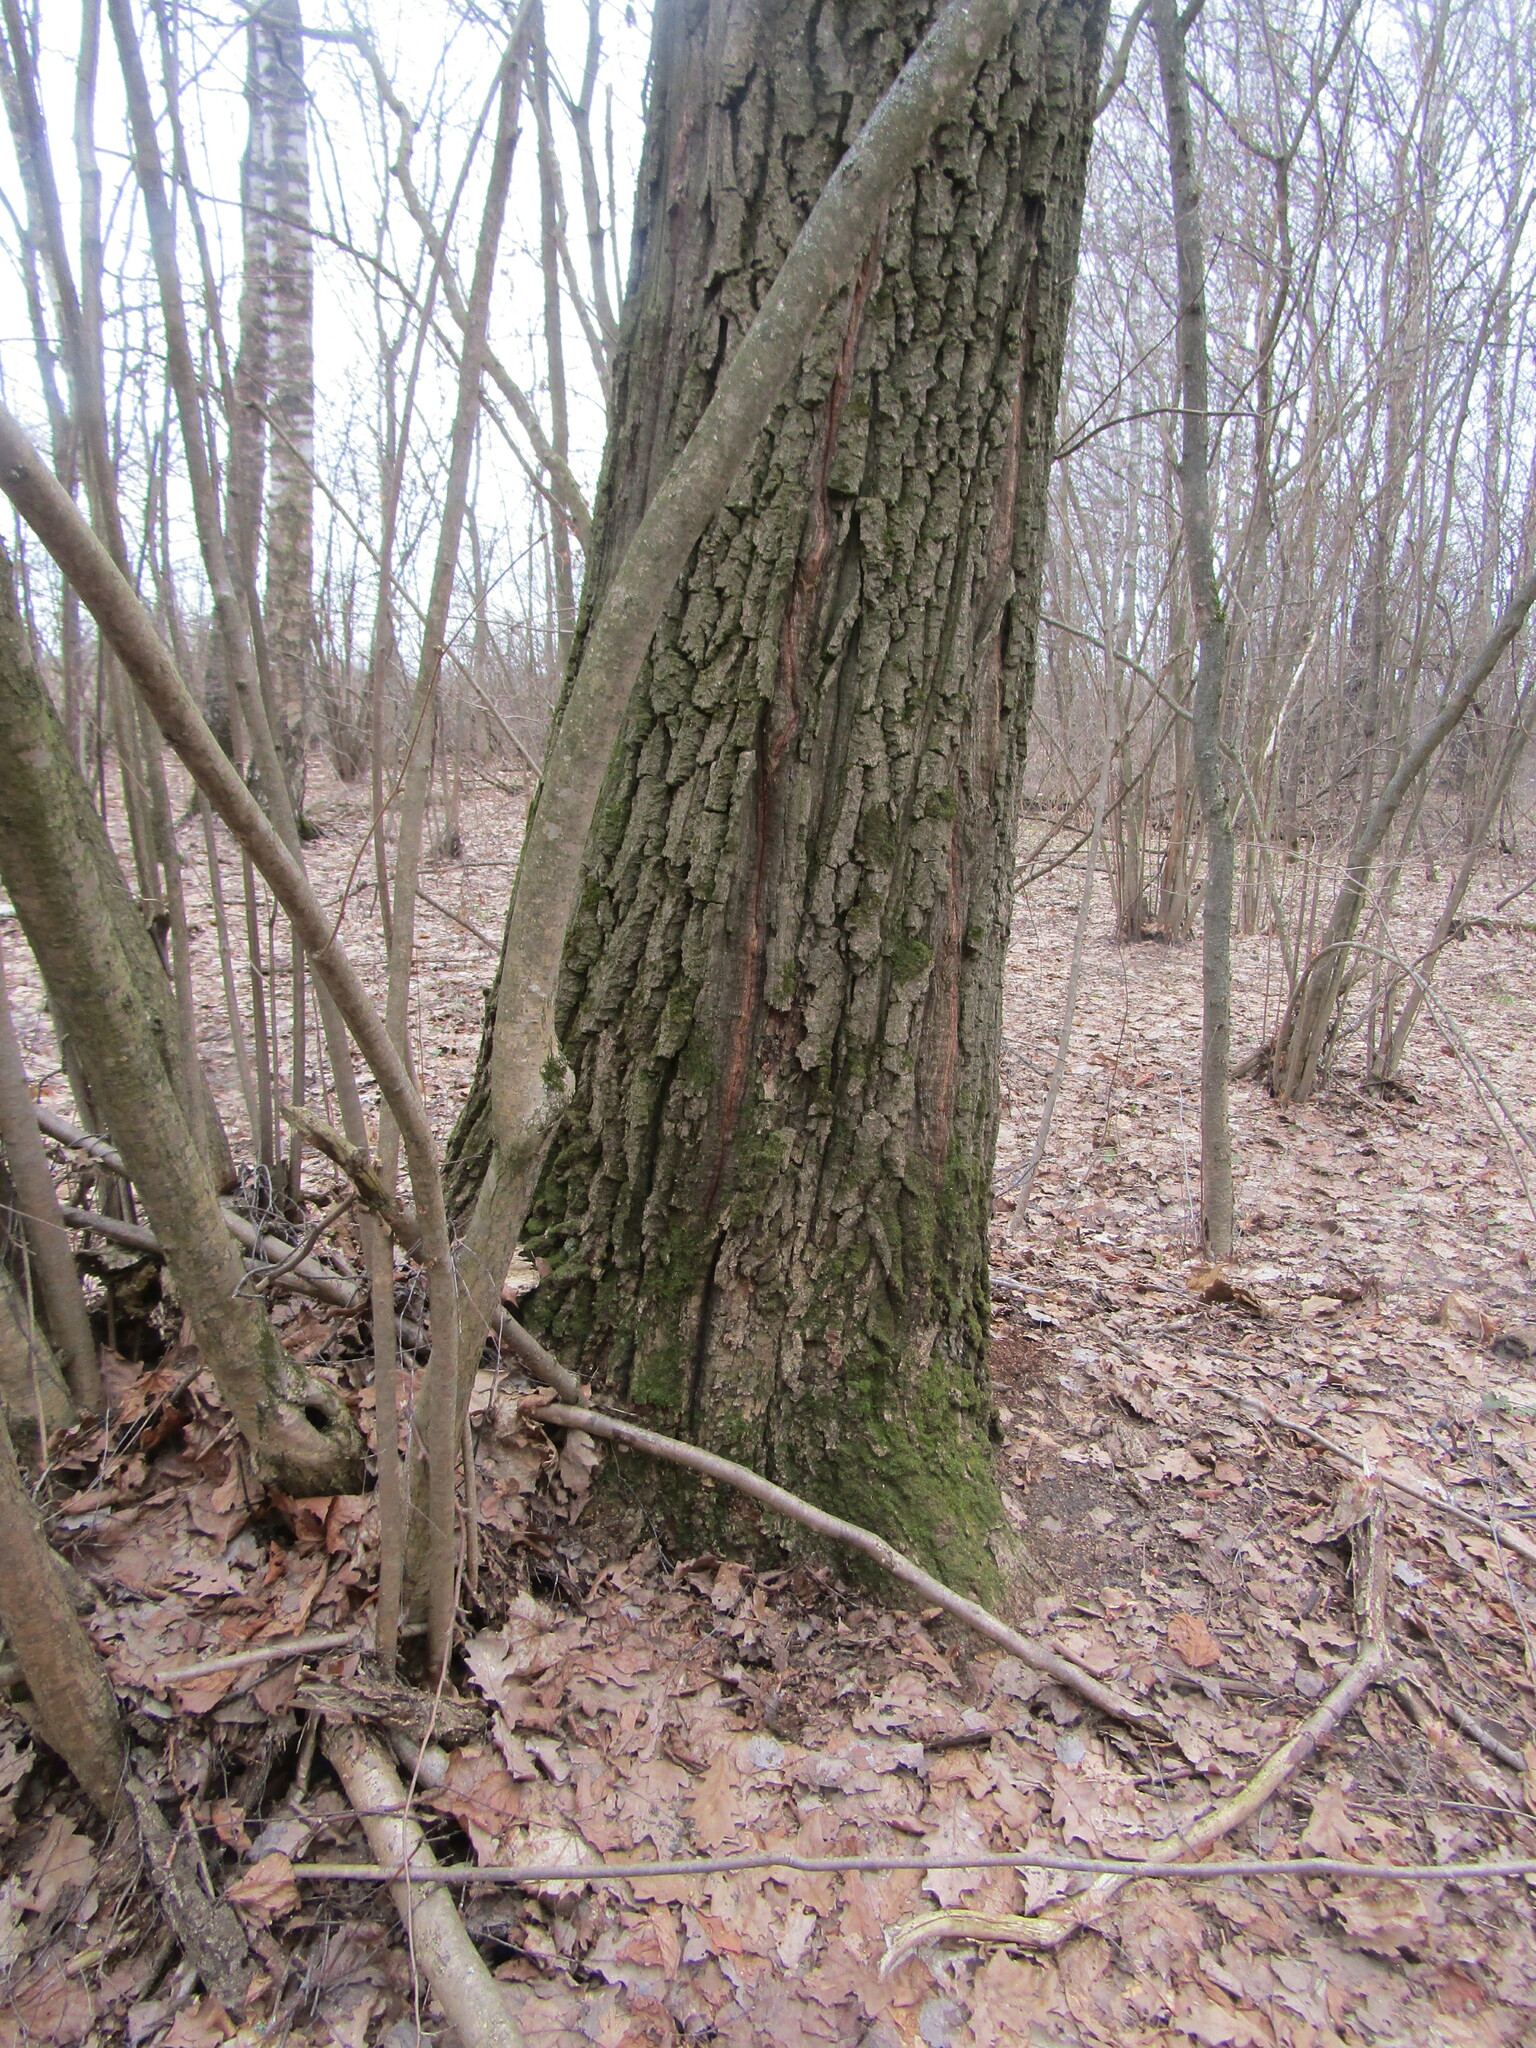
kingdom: Plantae
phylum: Tracheophyta
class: Magnoliopsida
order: Fagales
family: Fagaceae
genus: Quercus
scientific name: Quercus robur
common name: Pedunculate oak
